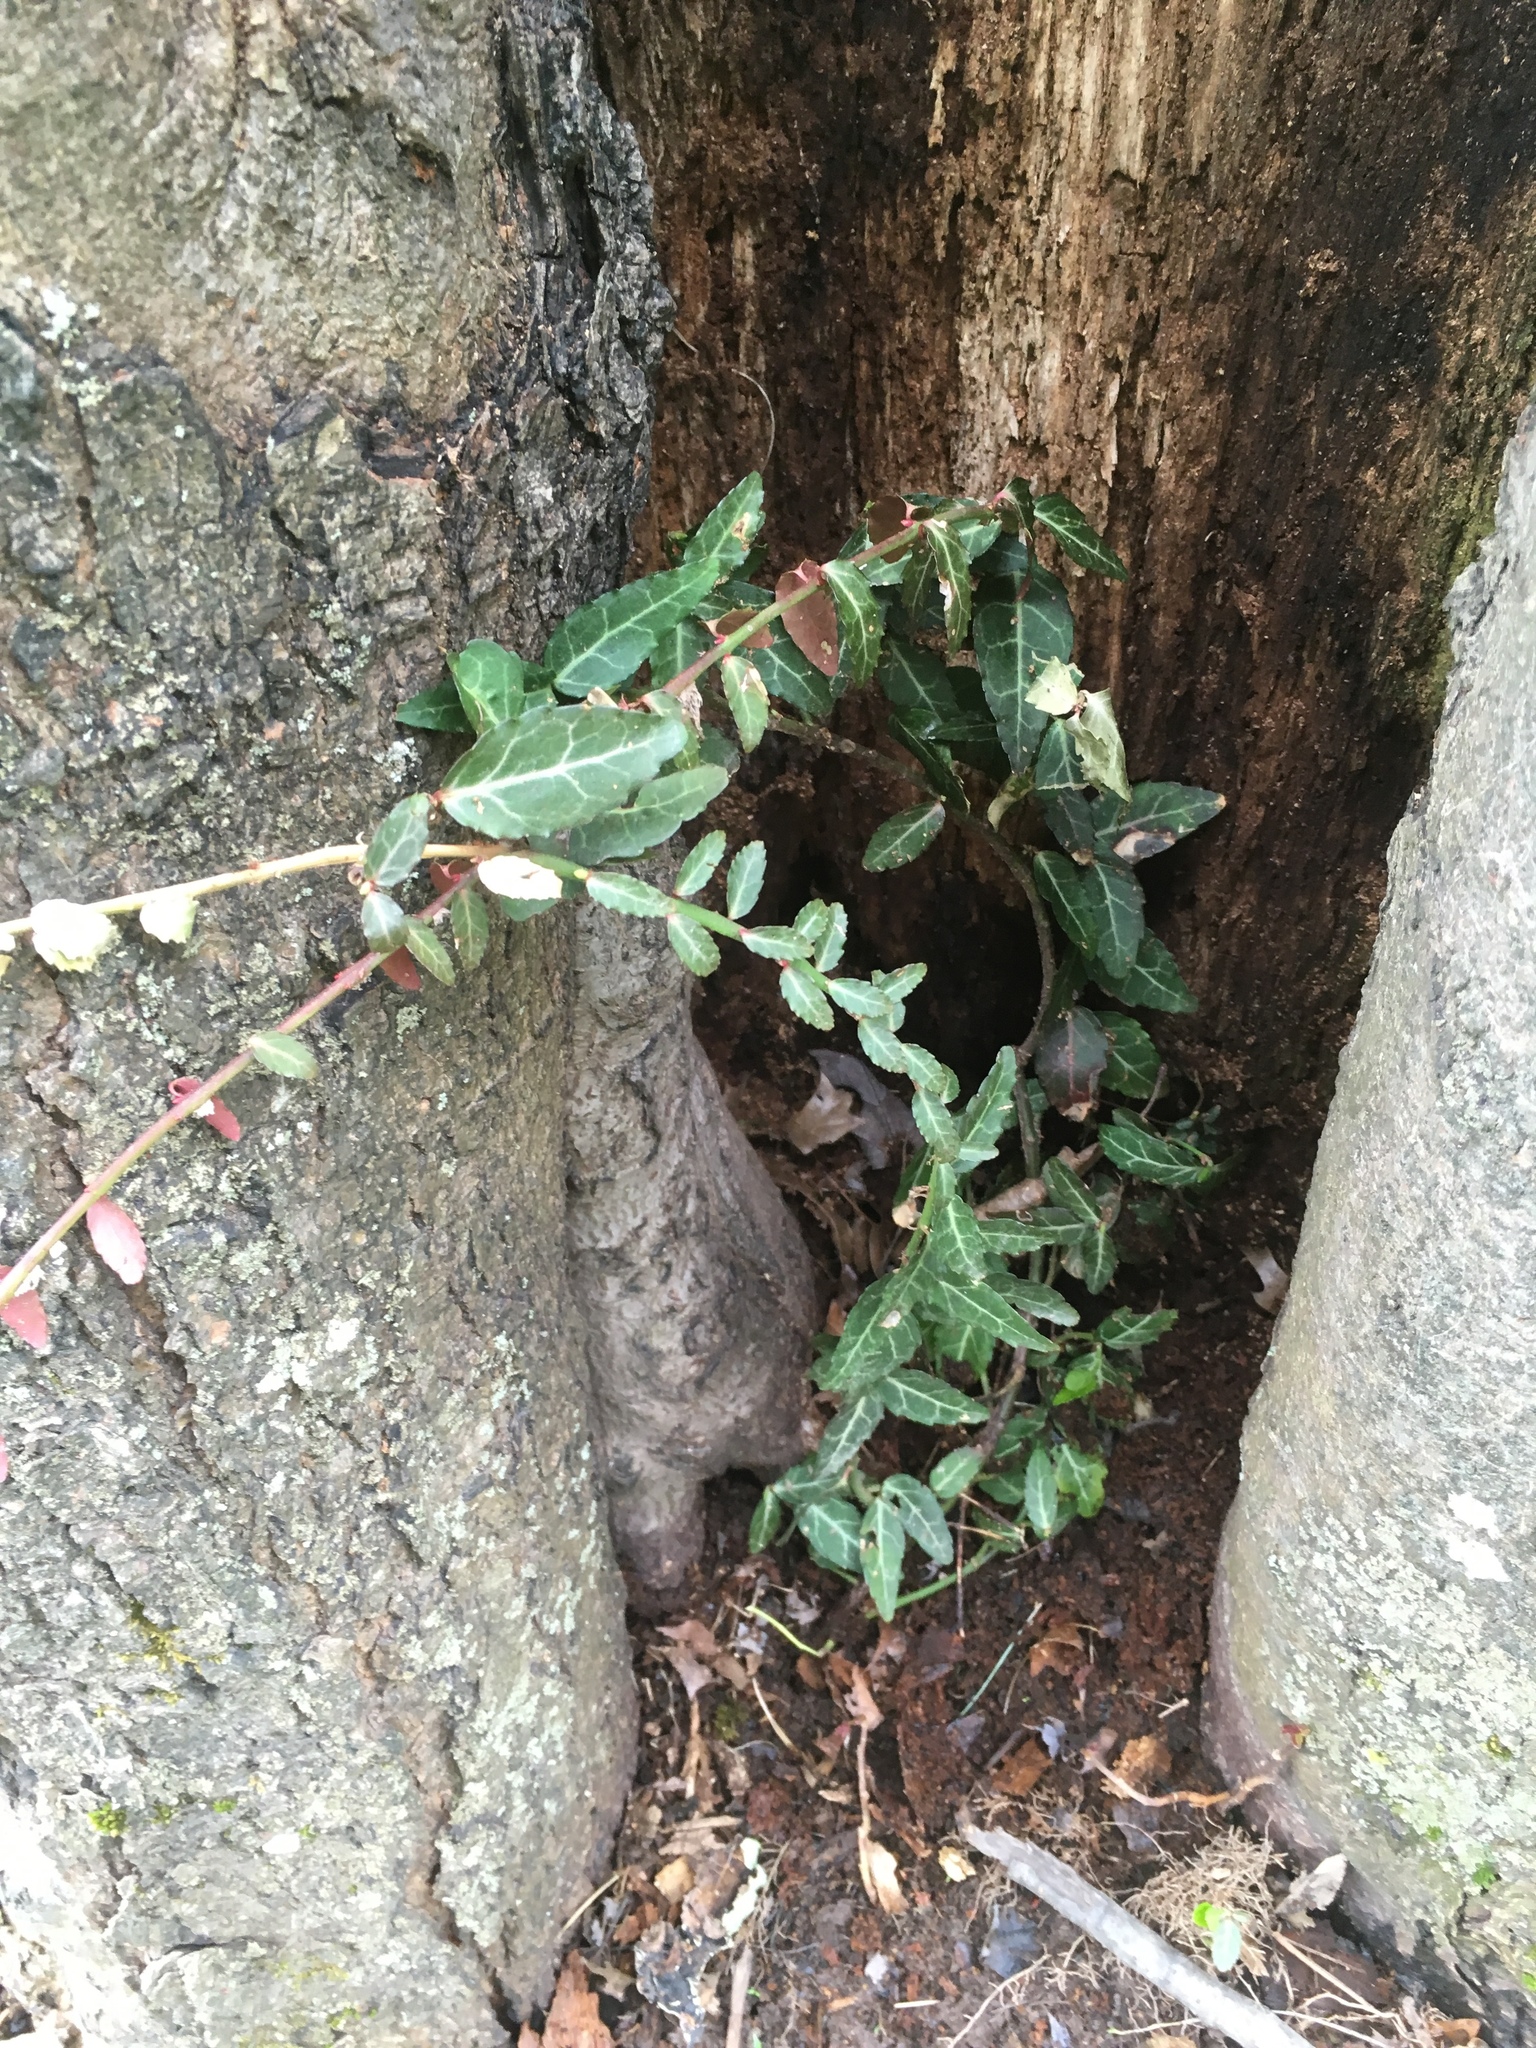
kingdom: Plantae
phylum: Tracheophyta
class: Magnoliopsida
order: Celastrales
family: Celastraceae
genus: Euonymus
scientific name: Euonymus fortunei
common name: Climbing euonymus
